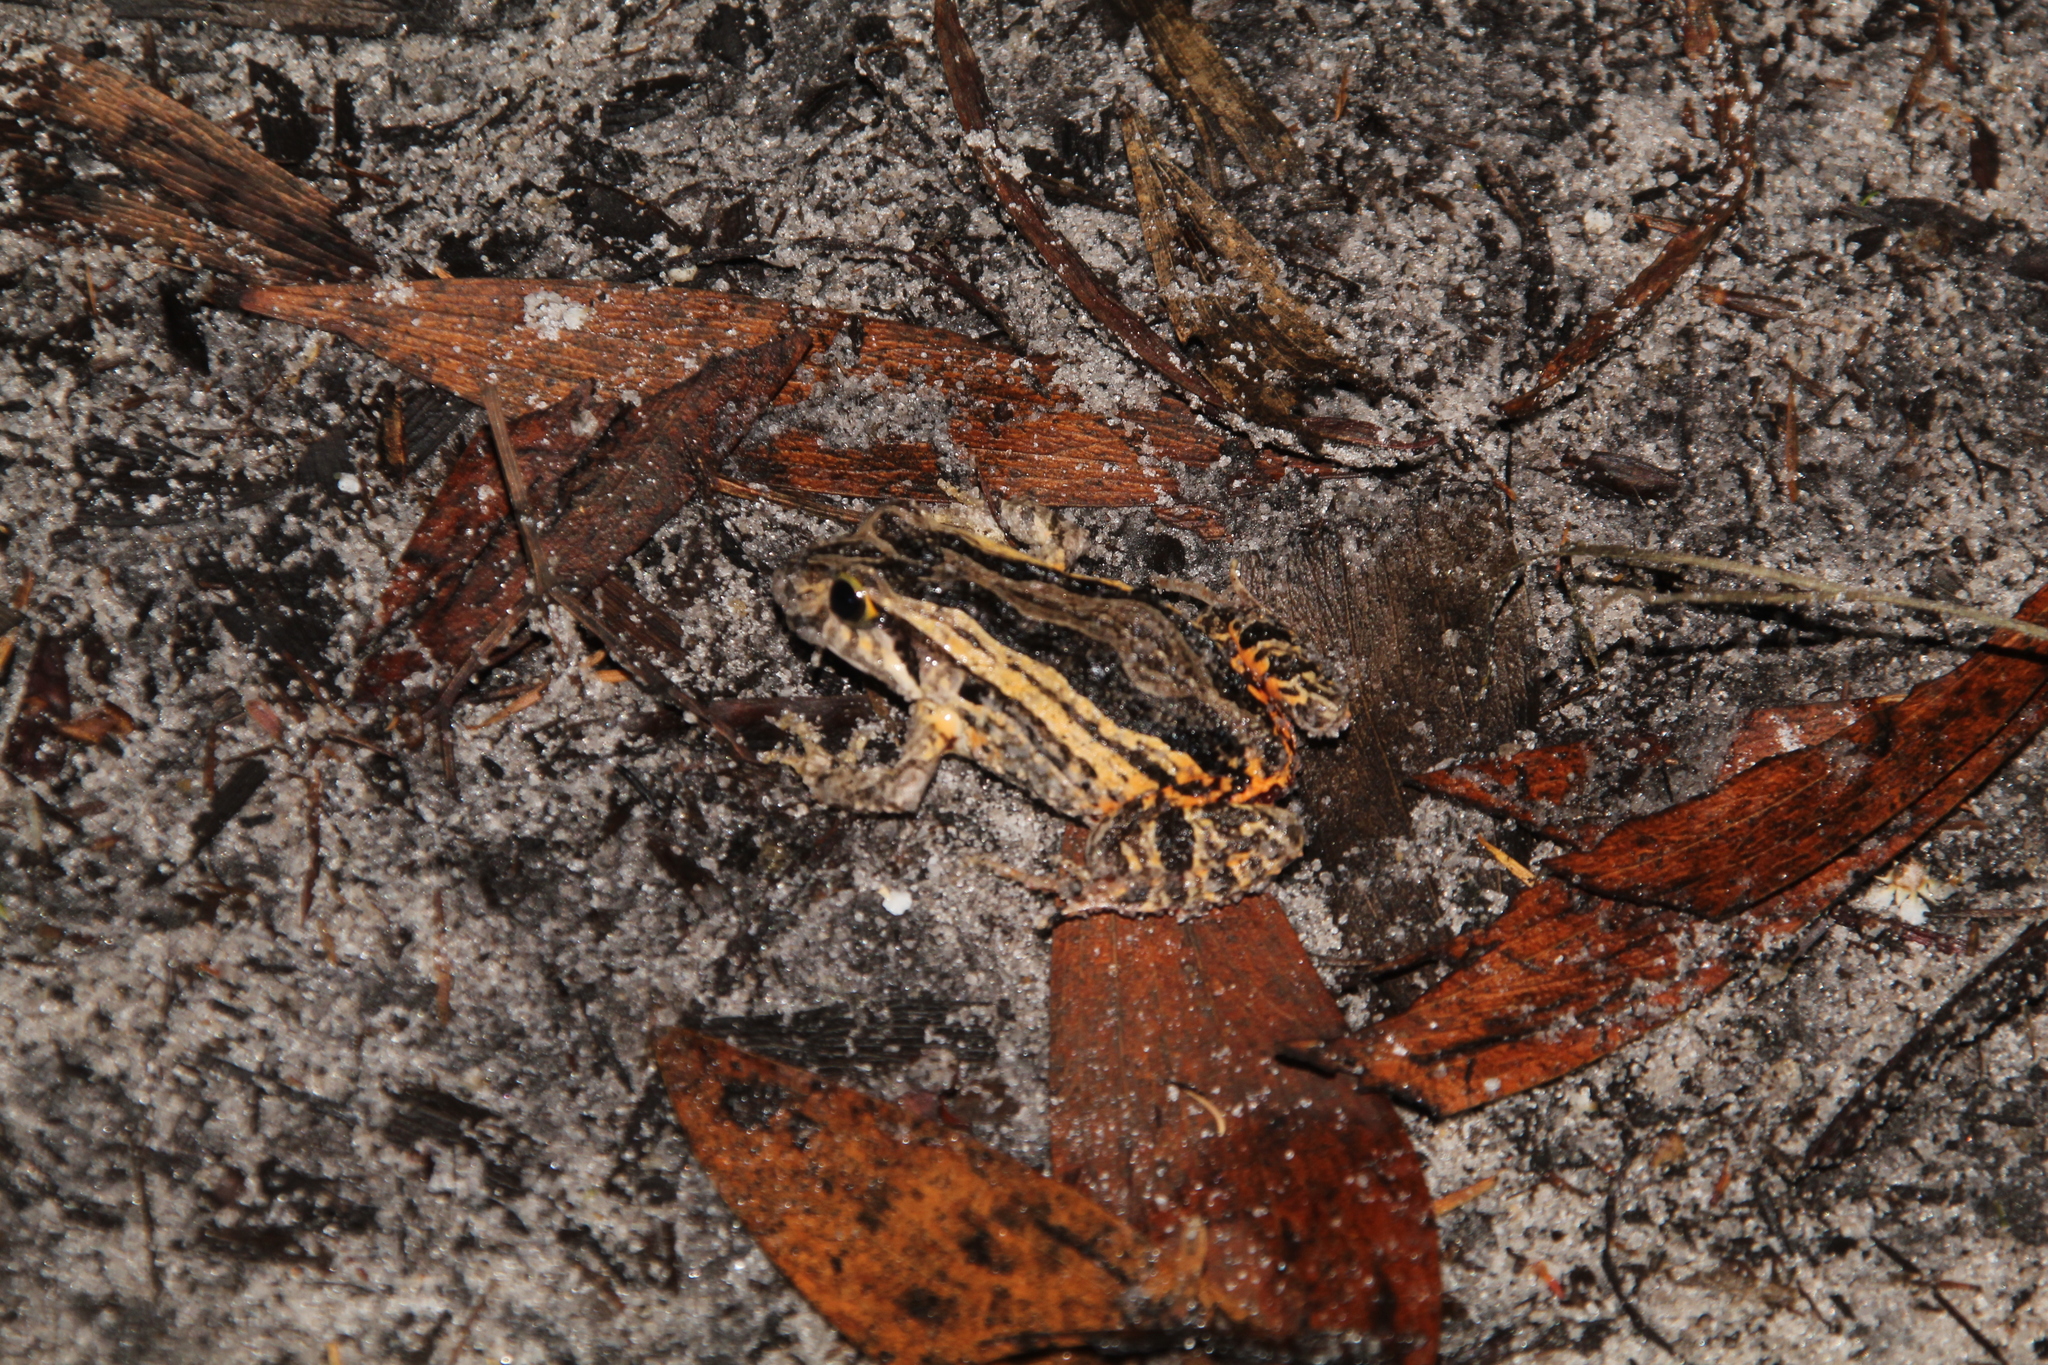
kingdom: Animalia
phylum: Chordata
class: Amphibia
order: Anura
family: Myobatrachidae
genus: Crinia
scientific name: Crinia georgiana
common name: Quacking frog
